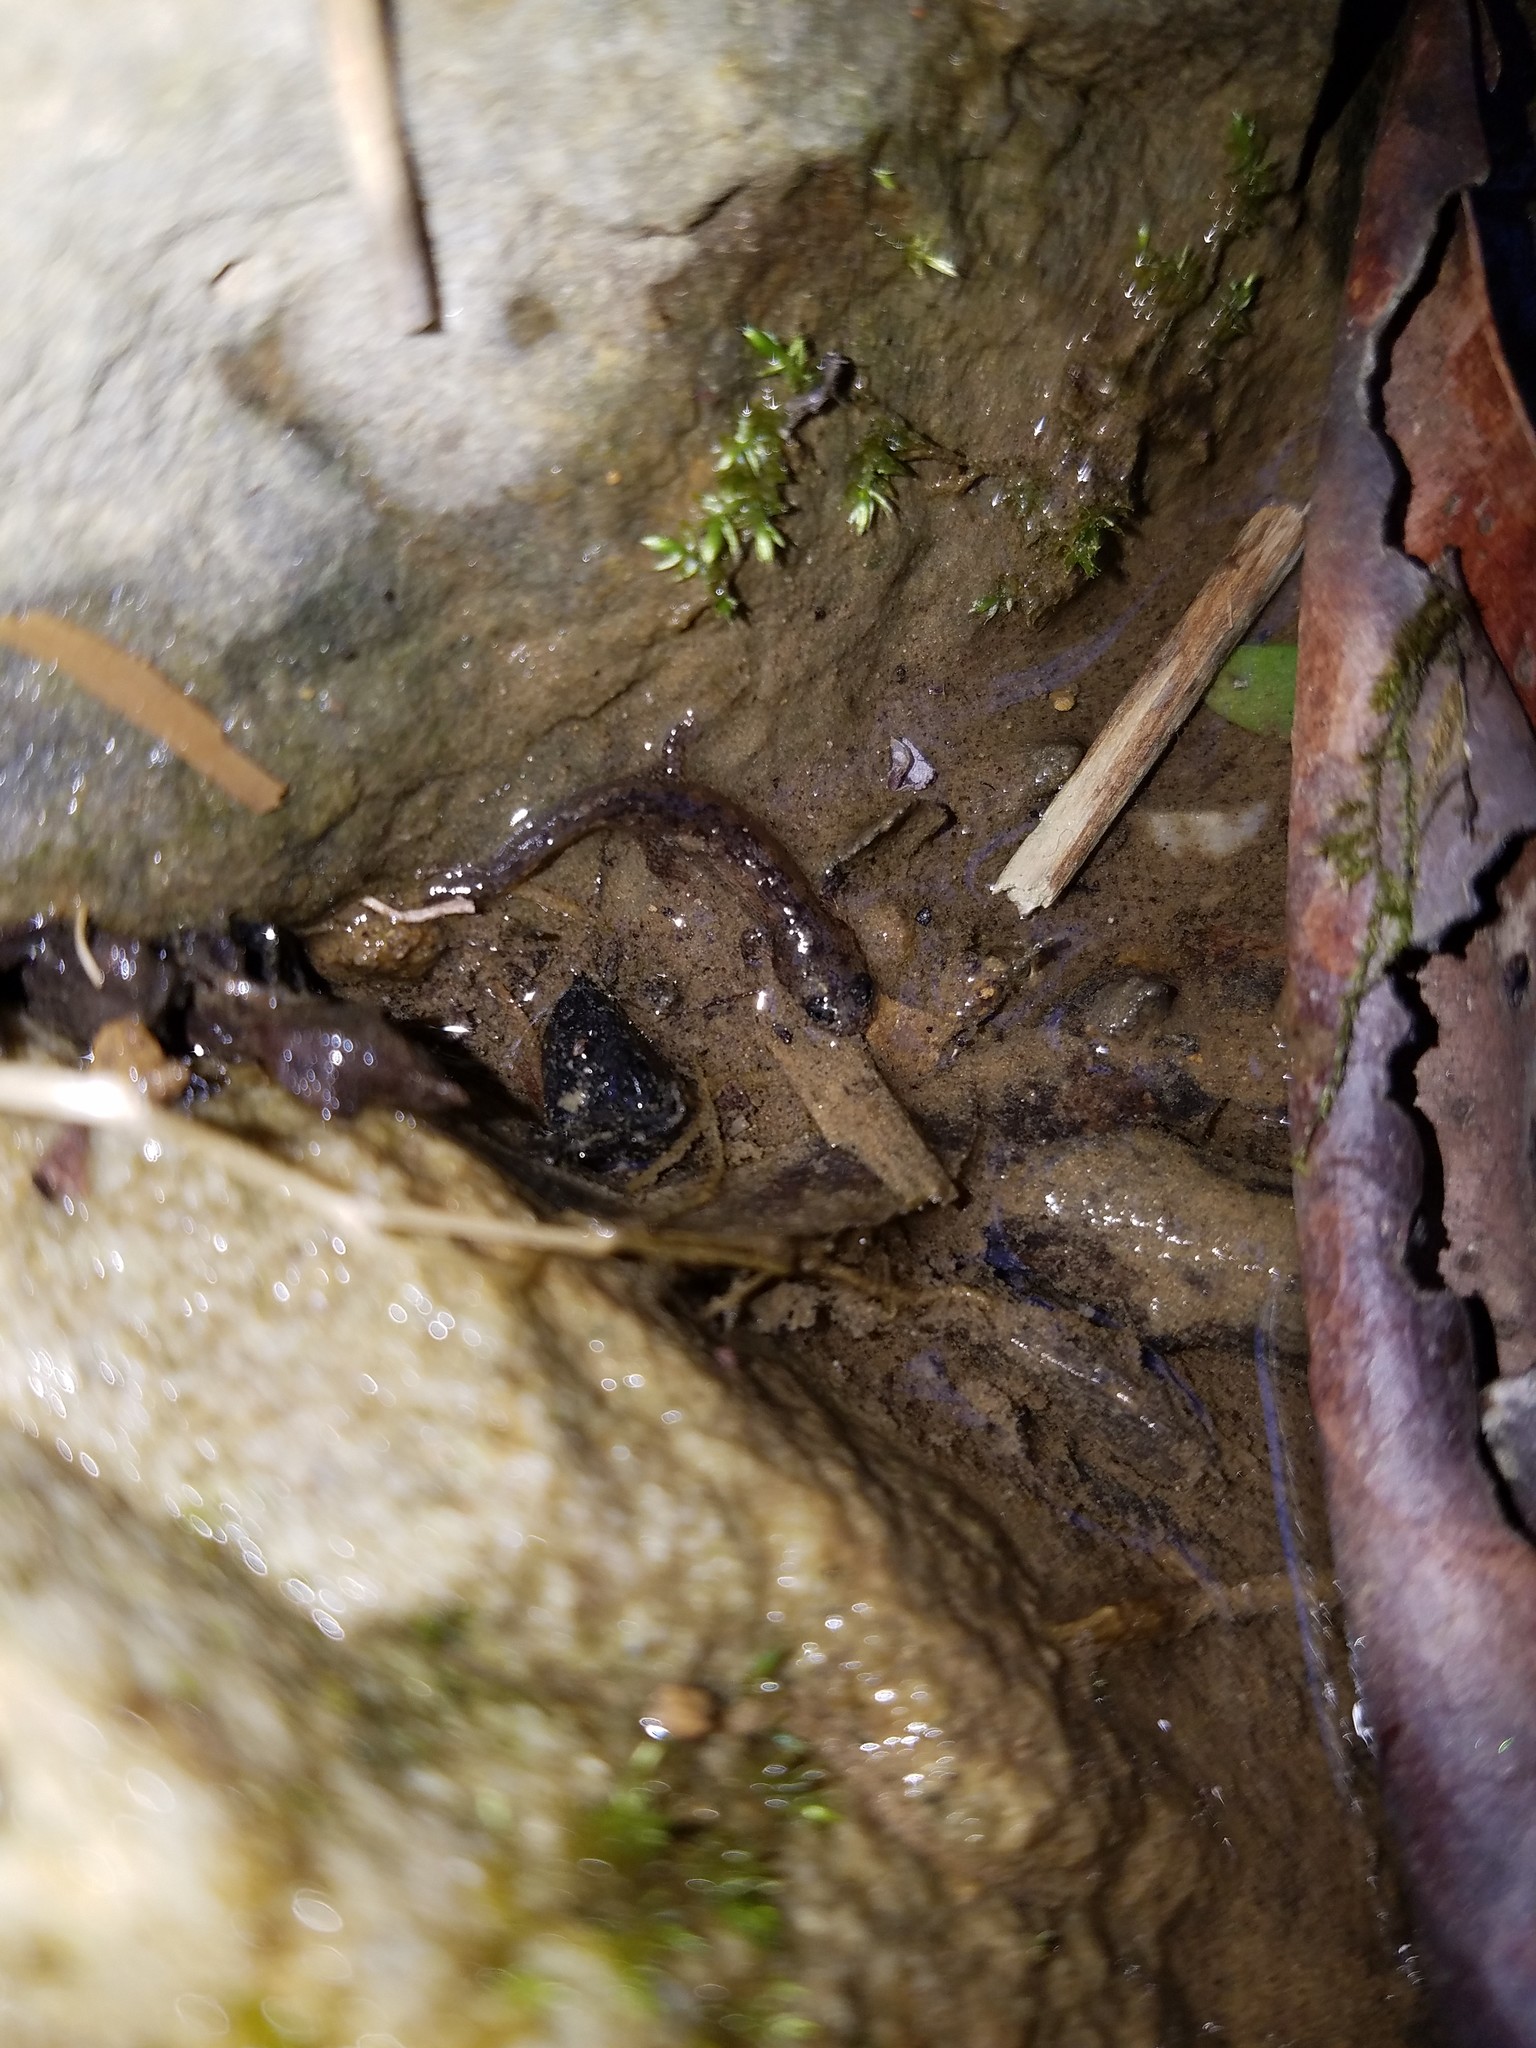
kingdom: Animalia
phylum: Chordata
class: Amphibia
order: Caudata
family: Plethodontidae
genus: Desmognathus
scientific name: Desmognathus monticola
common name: Seal salamander
